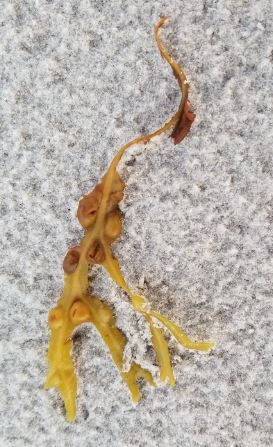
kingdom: Chromista
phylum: Ochrophyta
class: Phaeophyceae
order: Fucales
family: Fucaceae
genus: Fucus
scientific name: Fucus vesiculosus
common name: Bladder wrack
